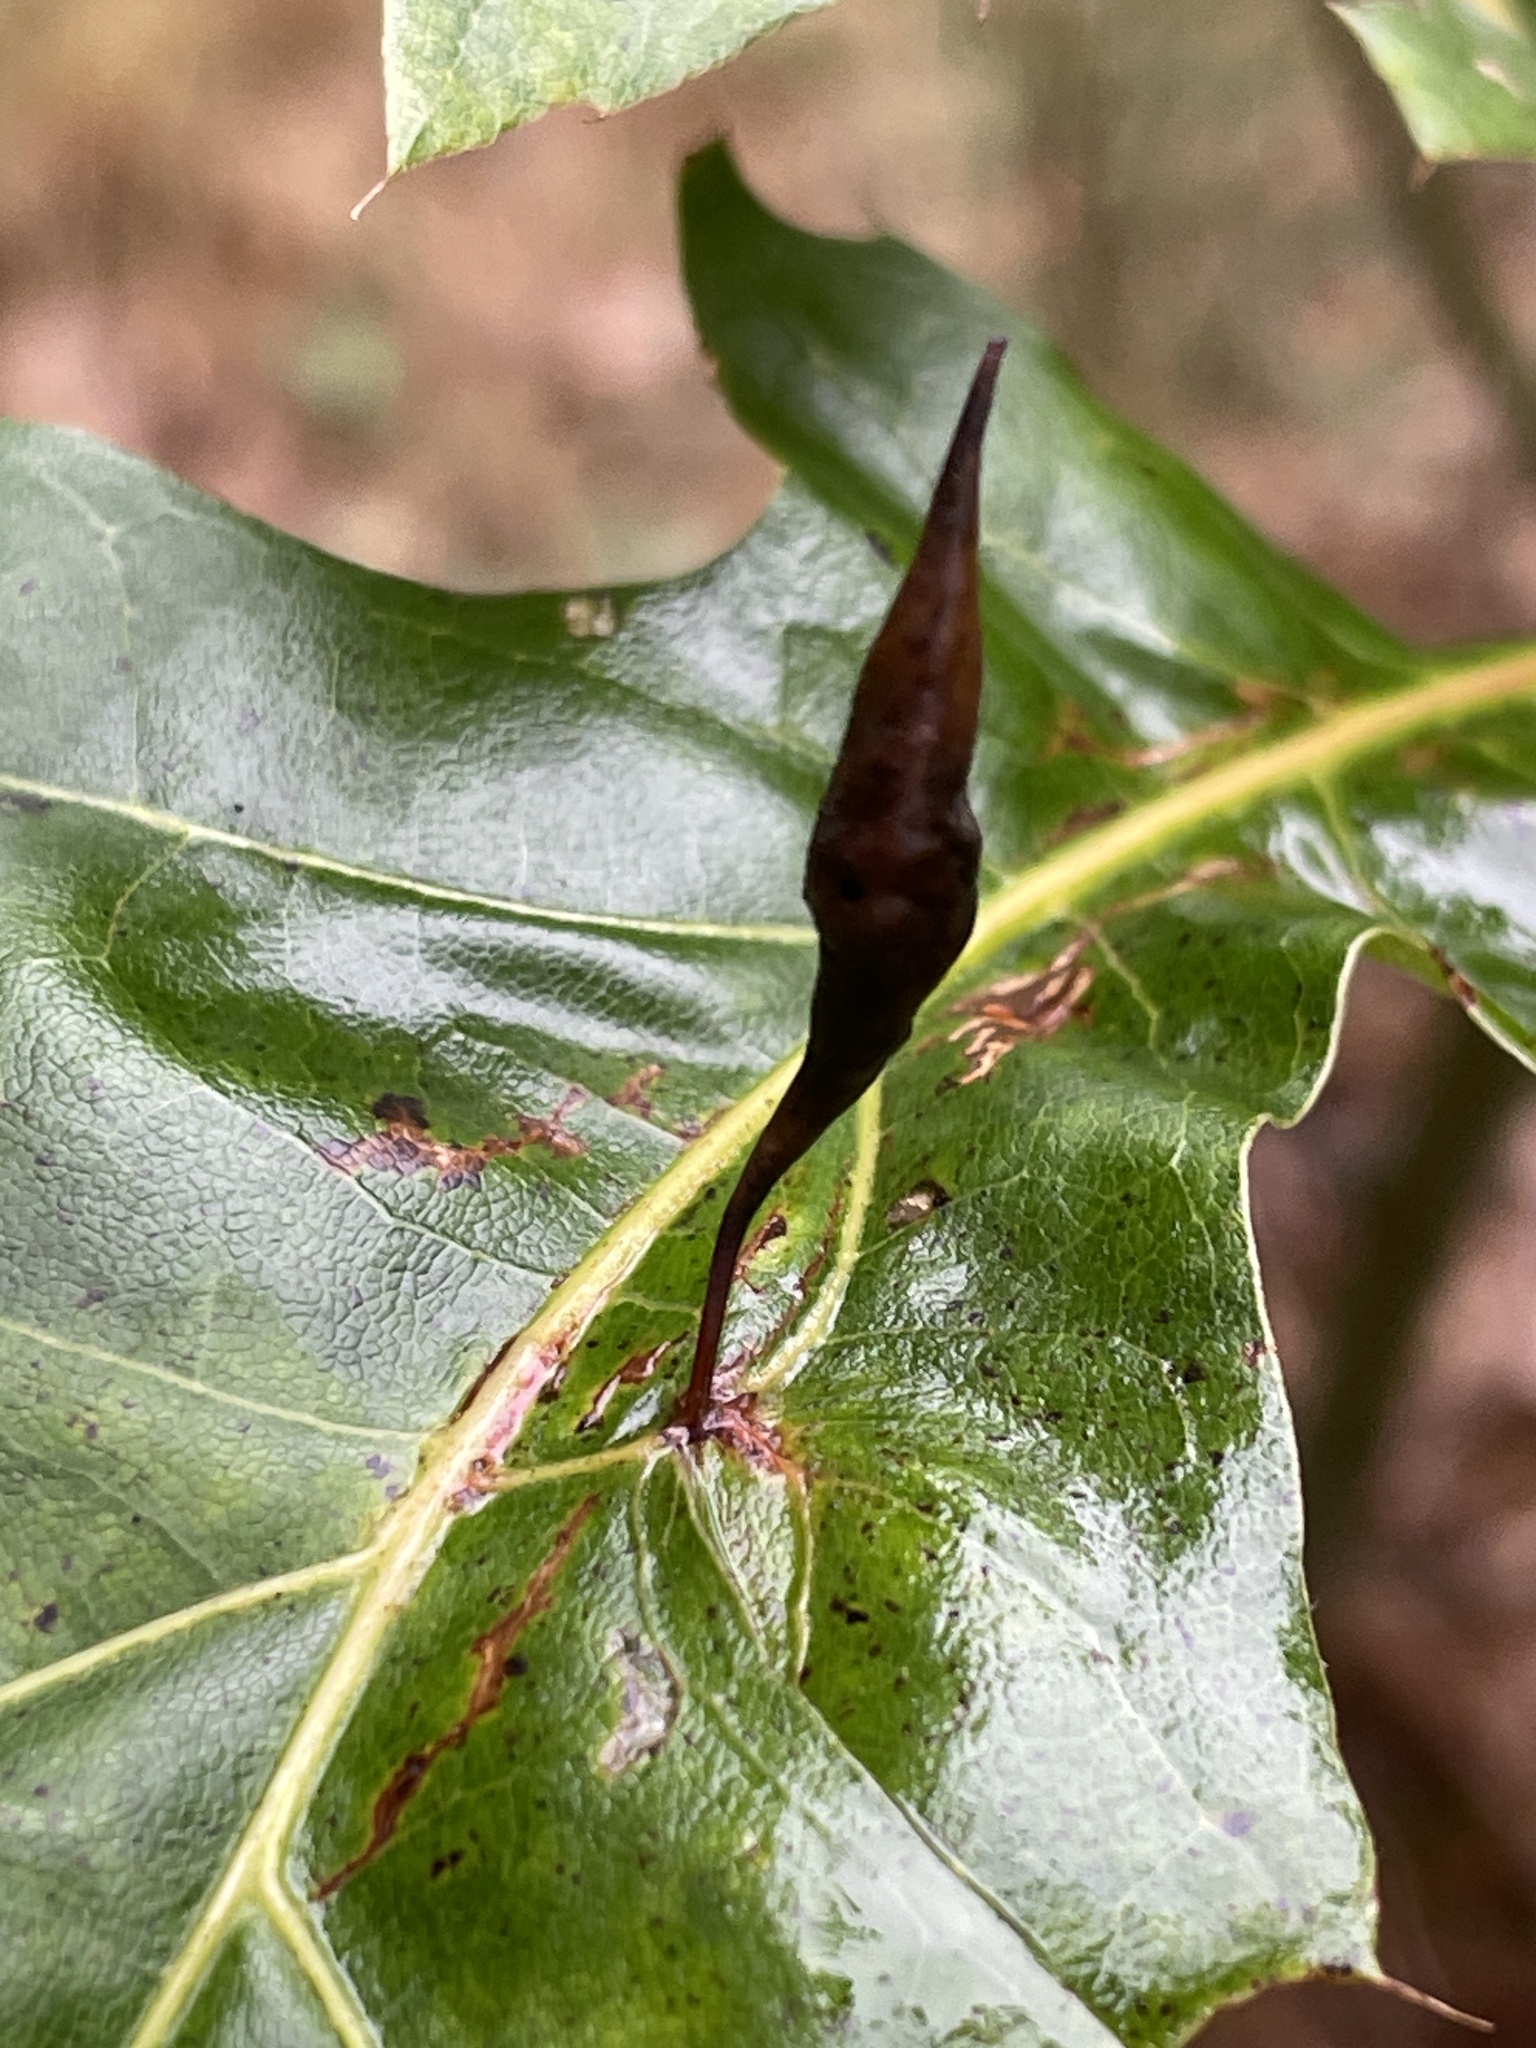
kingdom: Animalia
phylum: Arthropoda
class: Insecta
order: Hymenoptera
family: Cynipidae
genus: Amphibolips
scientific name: Amphibolips
